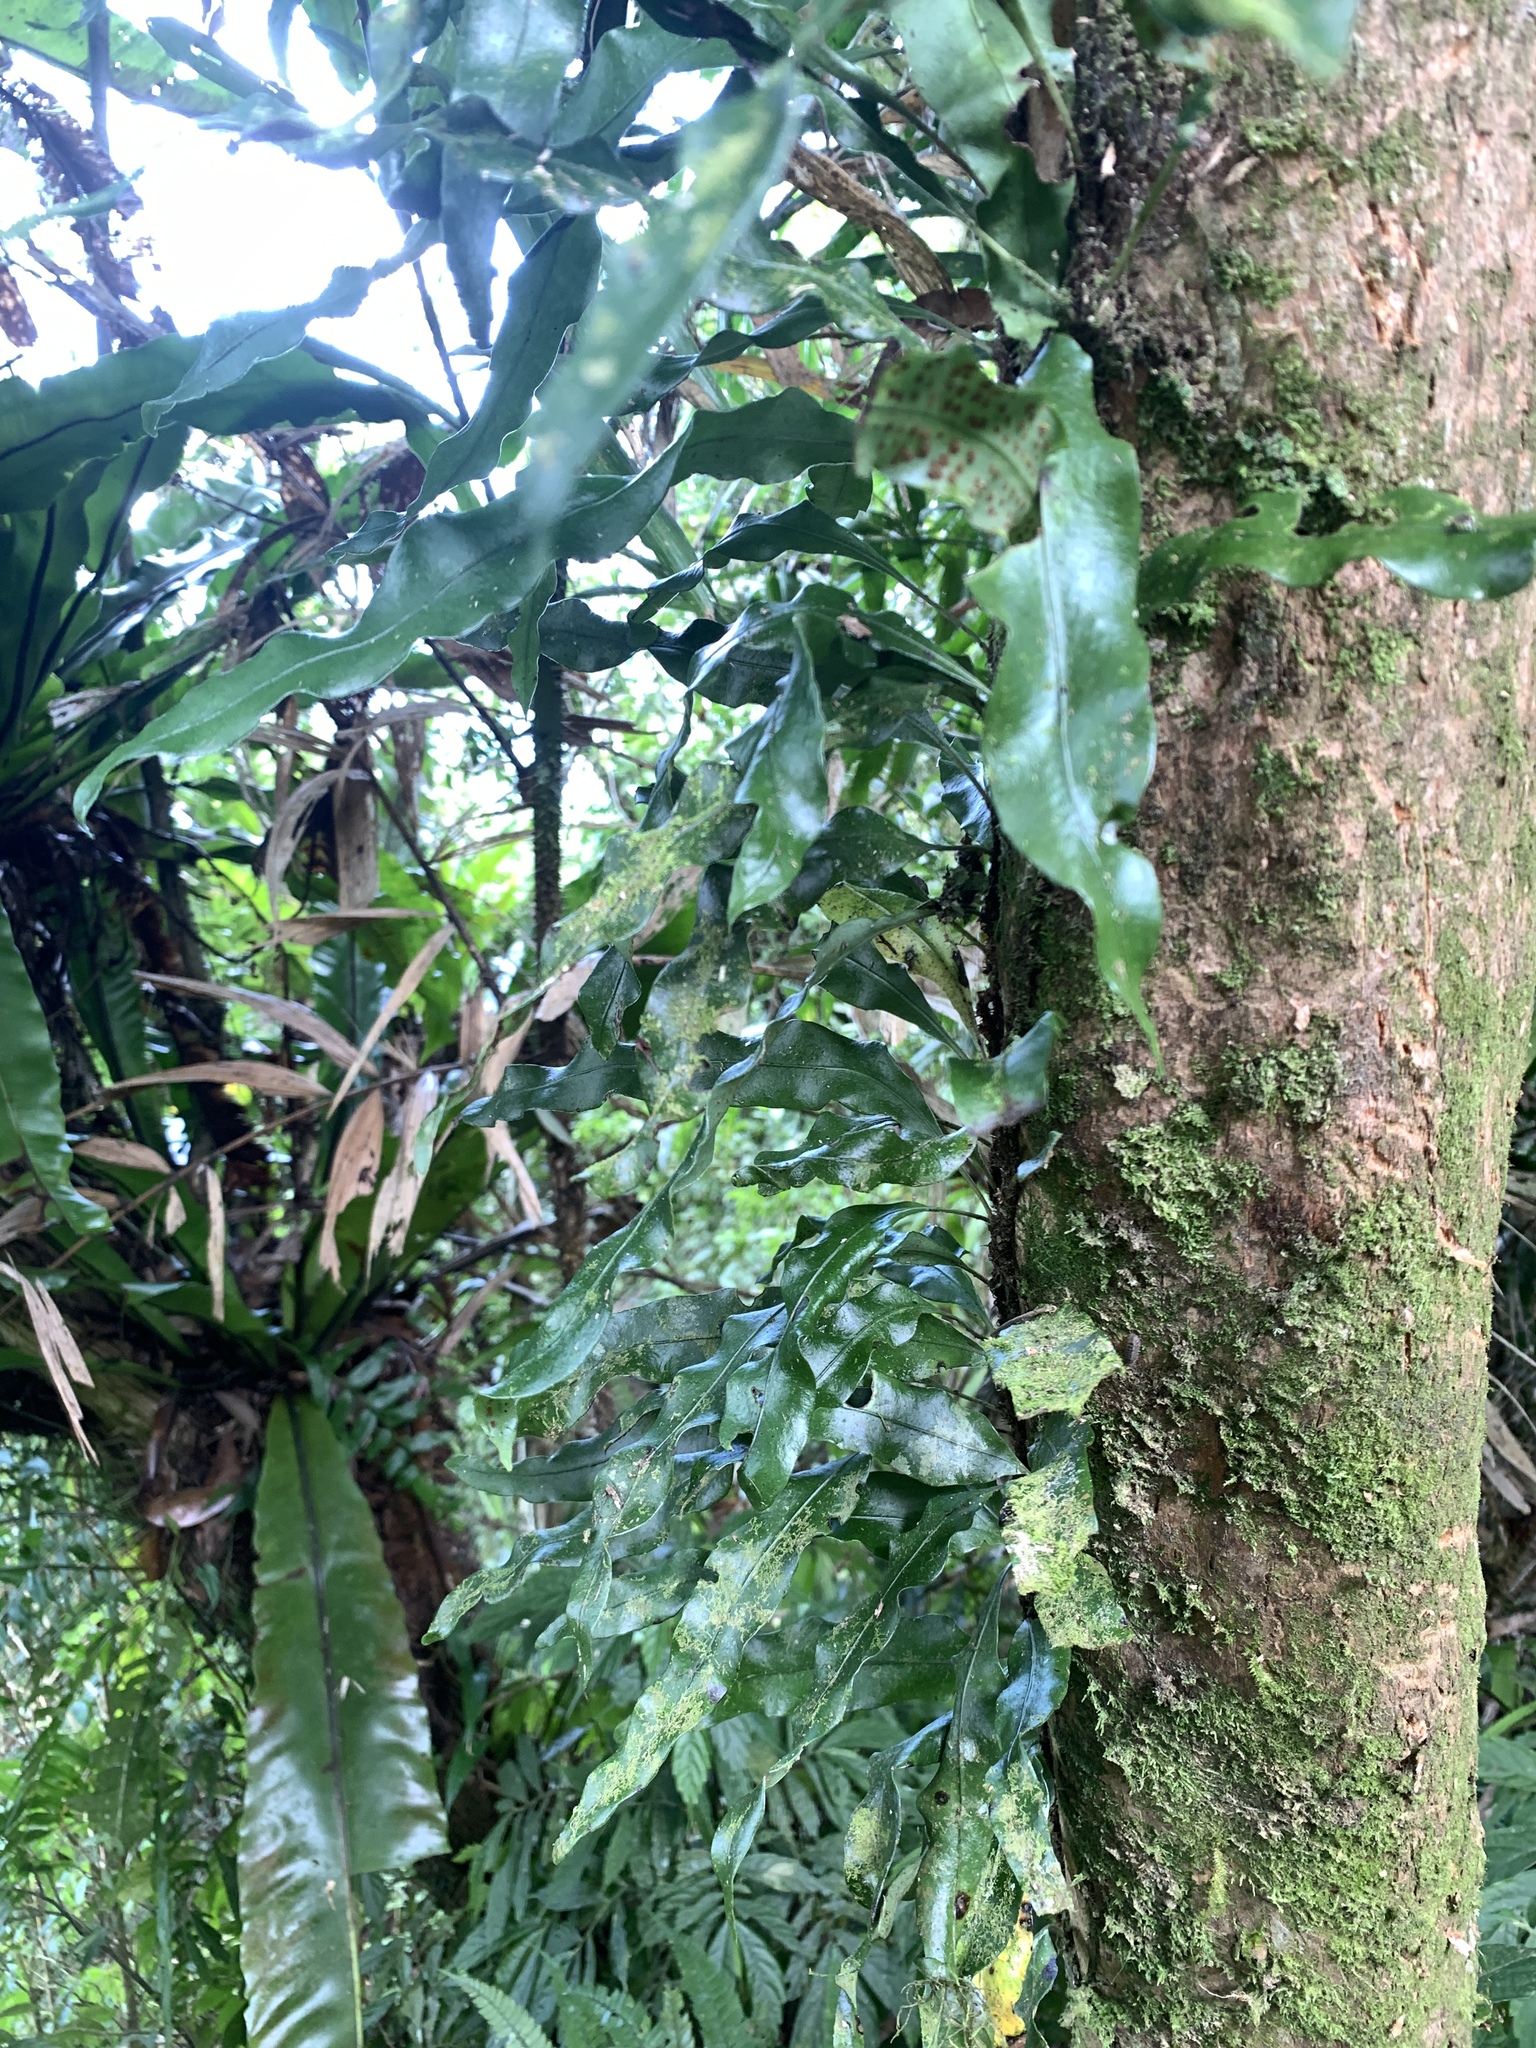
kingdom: Plantae
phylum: Tracheophyta
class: Polypodiopsida
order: Polypodiales
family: Polypodiaceae
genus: Lepisorus
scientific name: Lepisorus superficialis
